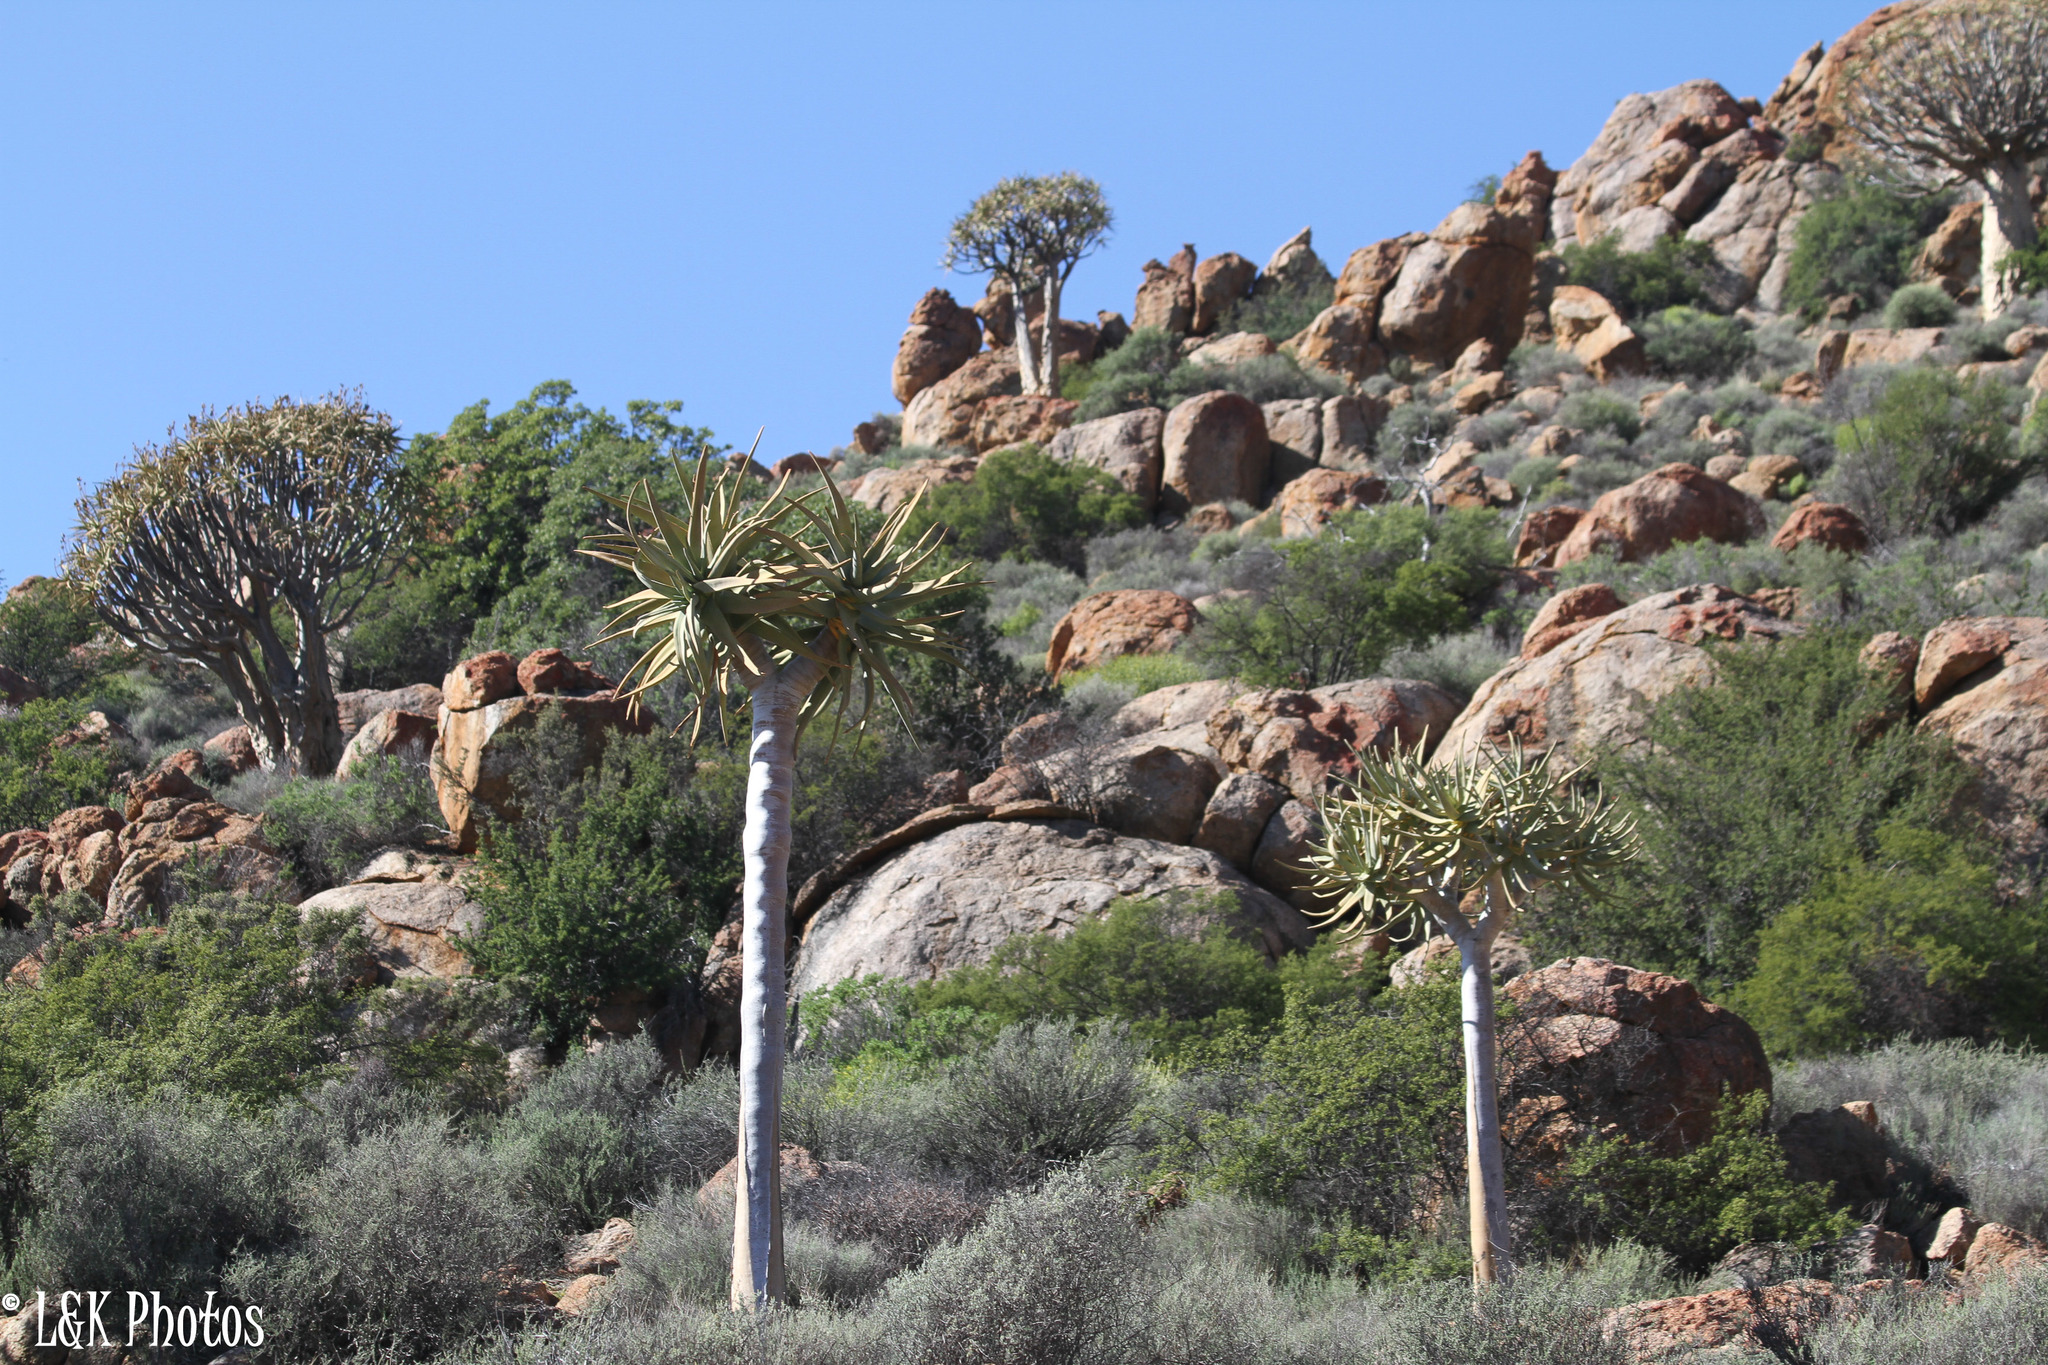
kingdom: Plantae
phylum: Tracheophyta
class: Liliopsida
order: Asparagales
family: Asphodelaceae
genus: Aloidendron
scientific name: Aloidendron dichotomum
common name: Quiver tree
